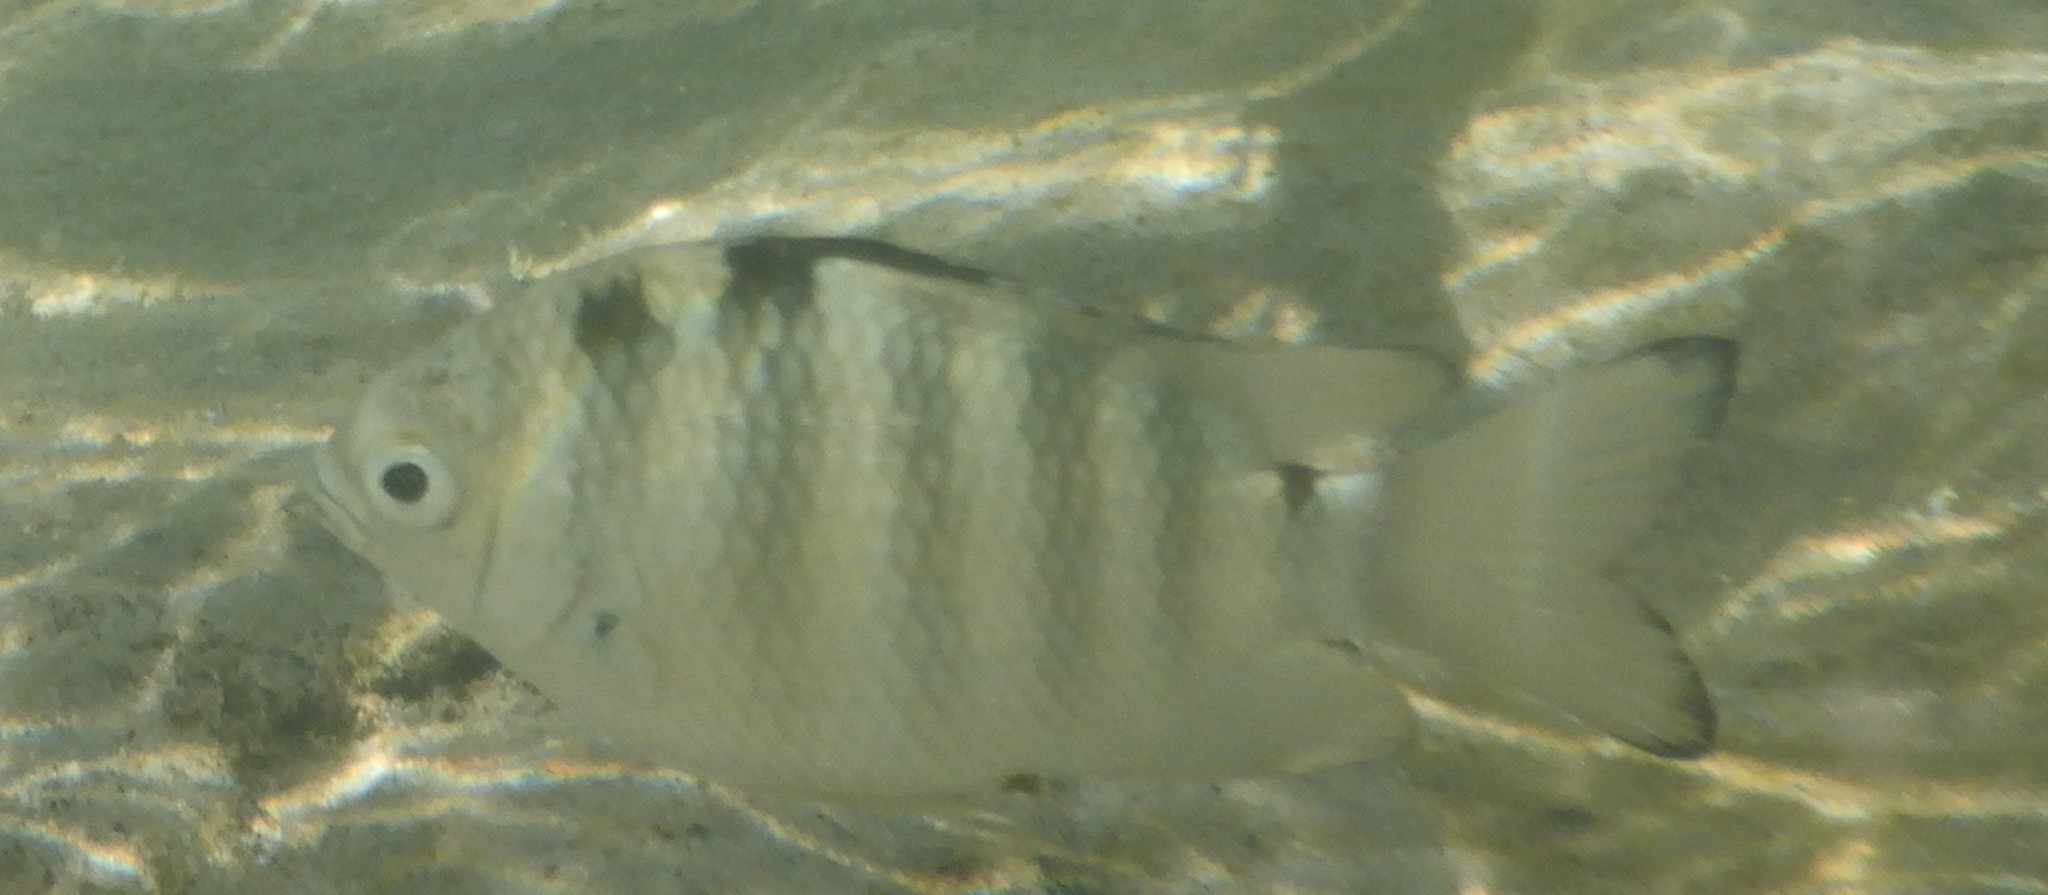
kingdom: Animalia
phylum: Chordata
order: Perciformes
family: Pomacentridae
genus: Abudefduf
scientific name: Abudefduf septemfasciatus
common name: Banded sergeant
